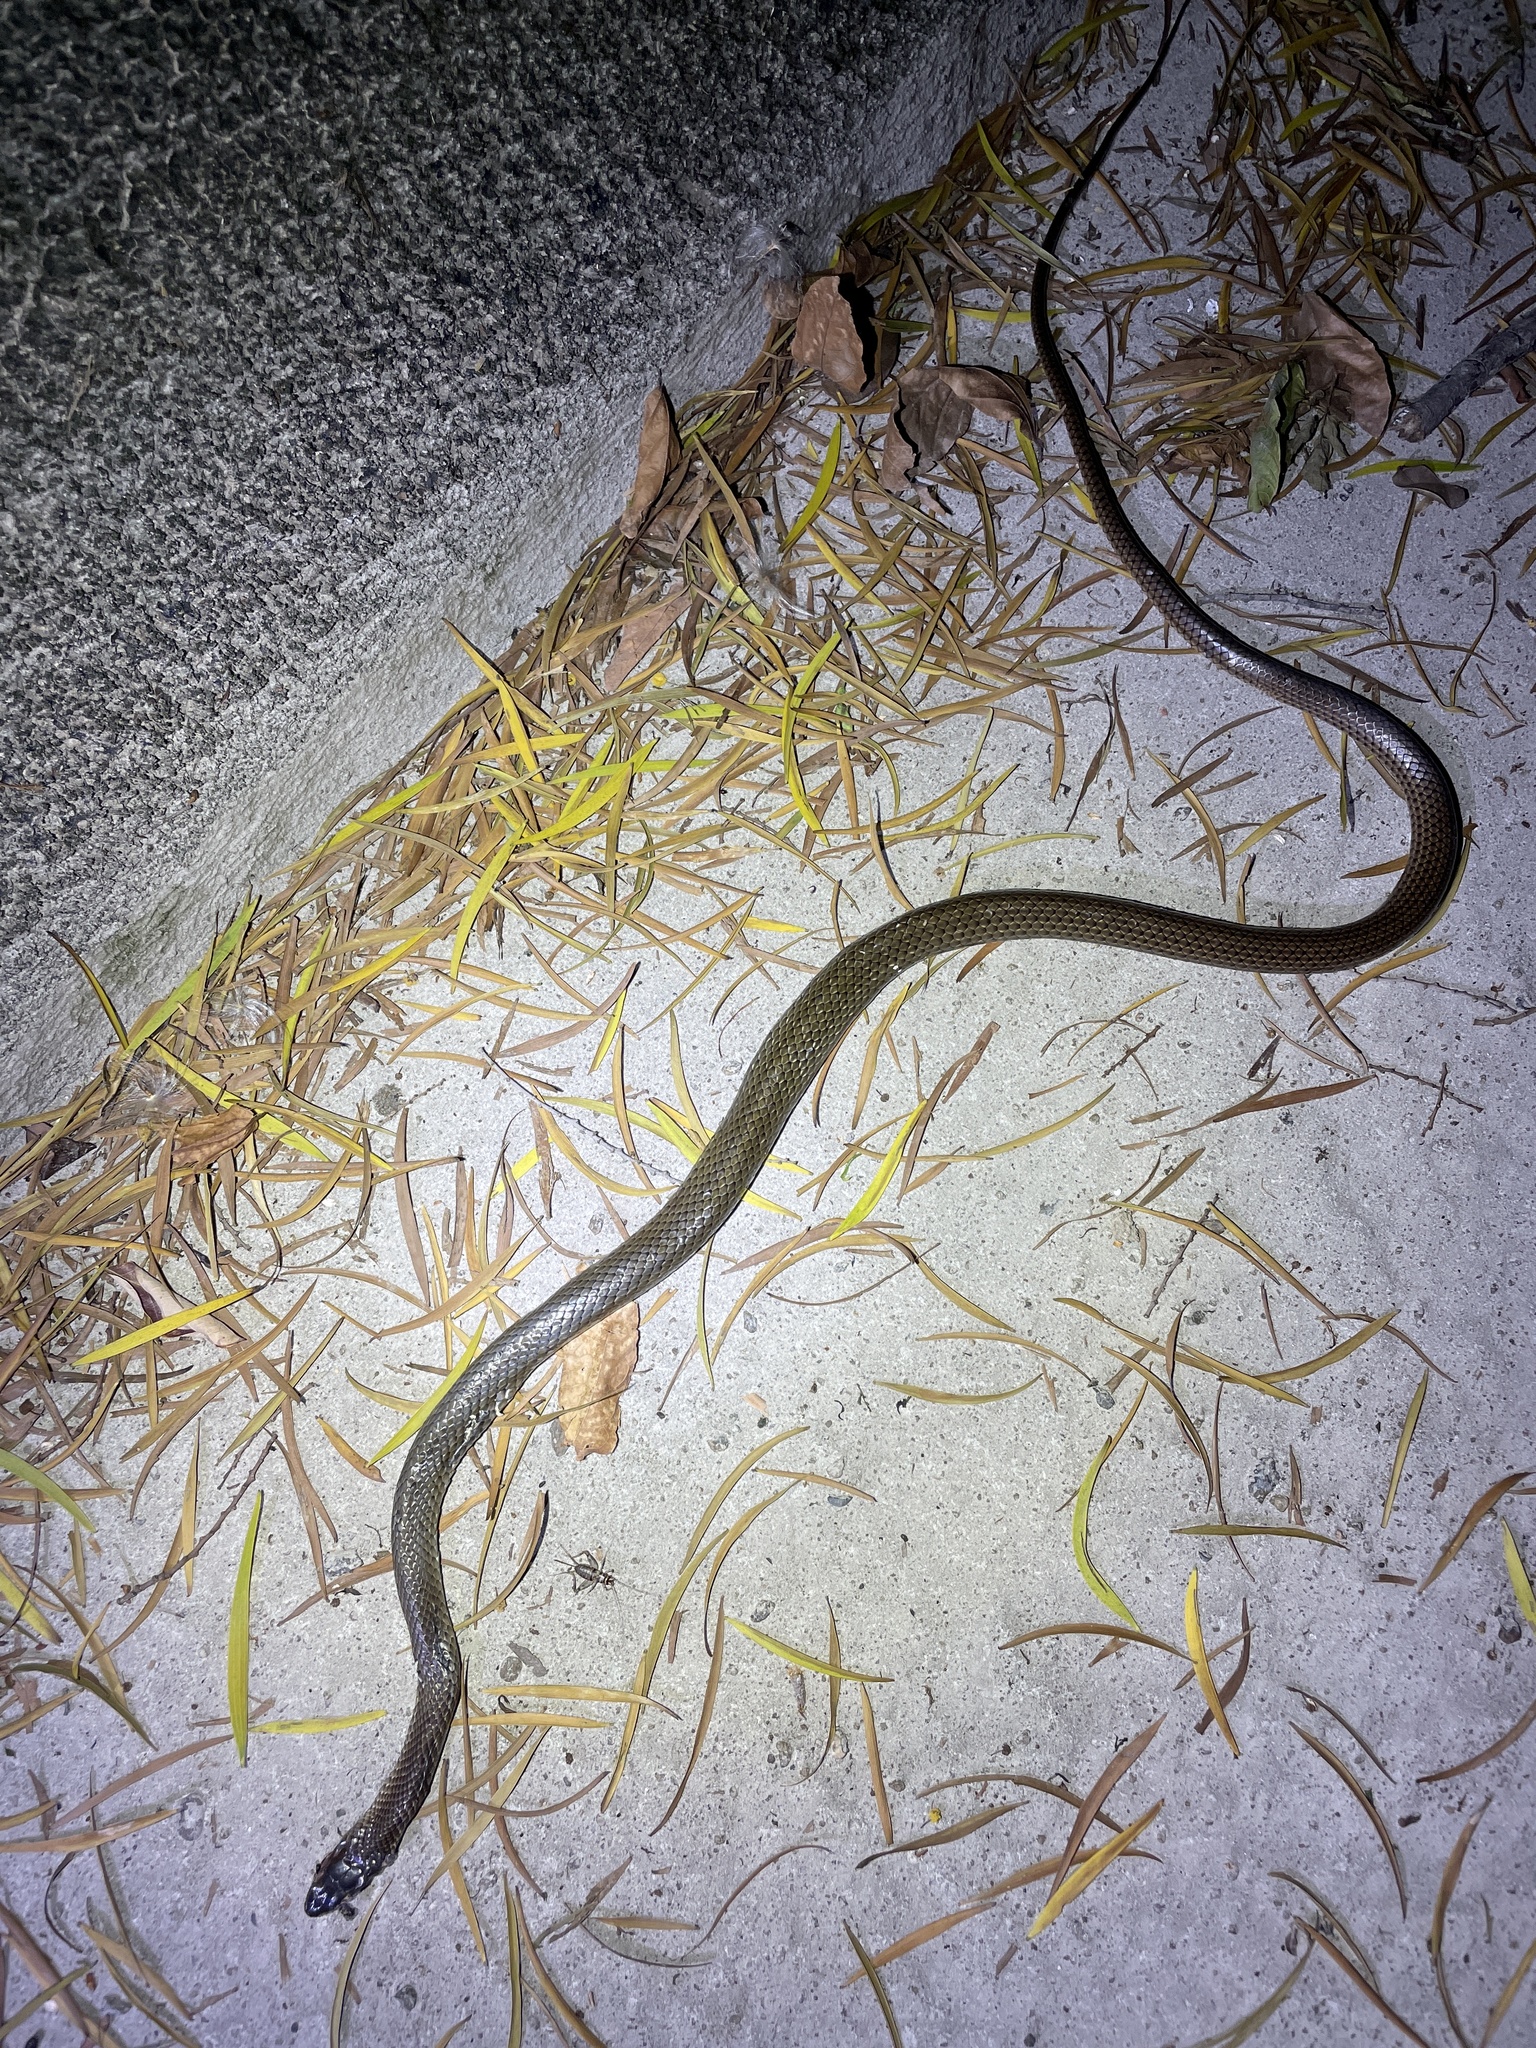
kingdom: Animalia
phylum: Chordata
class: Squamata
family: Colubridae
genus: Ptyas
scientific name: Ptyas korros
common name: Indo-chinese rat snake
